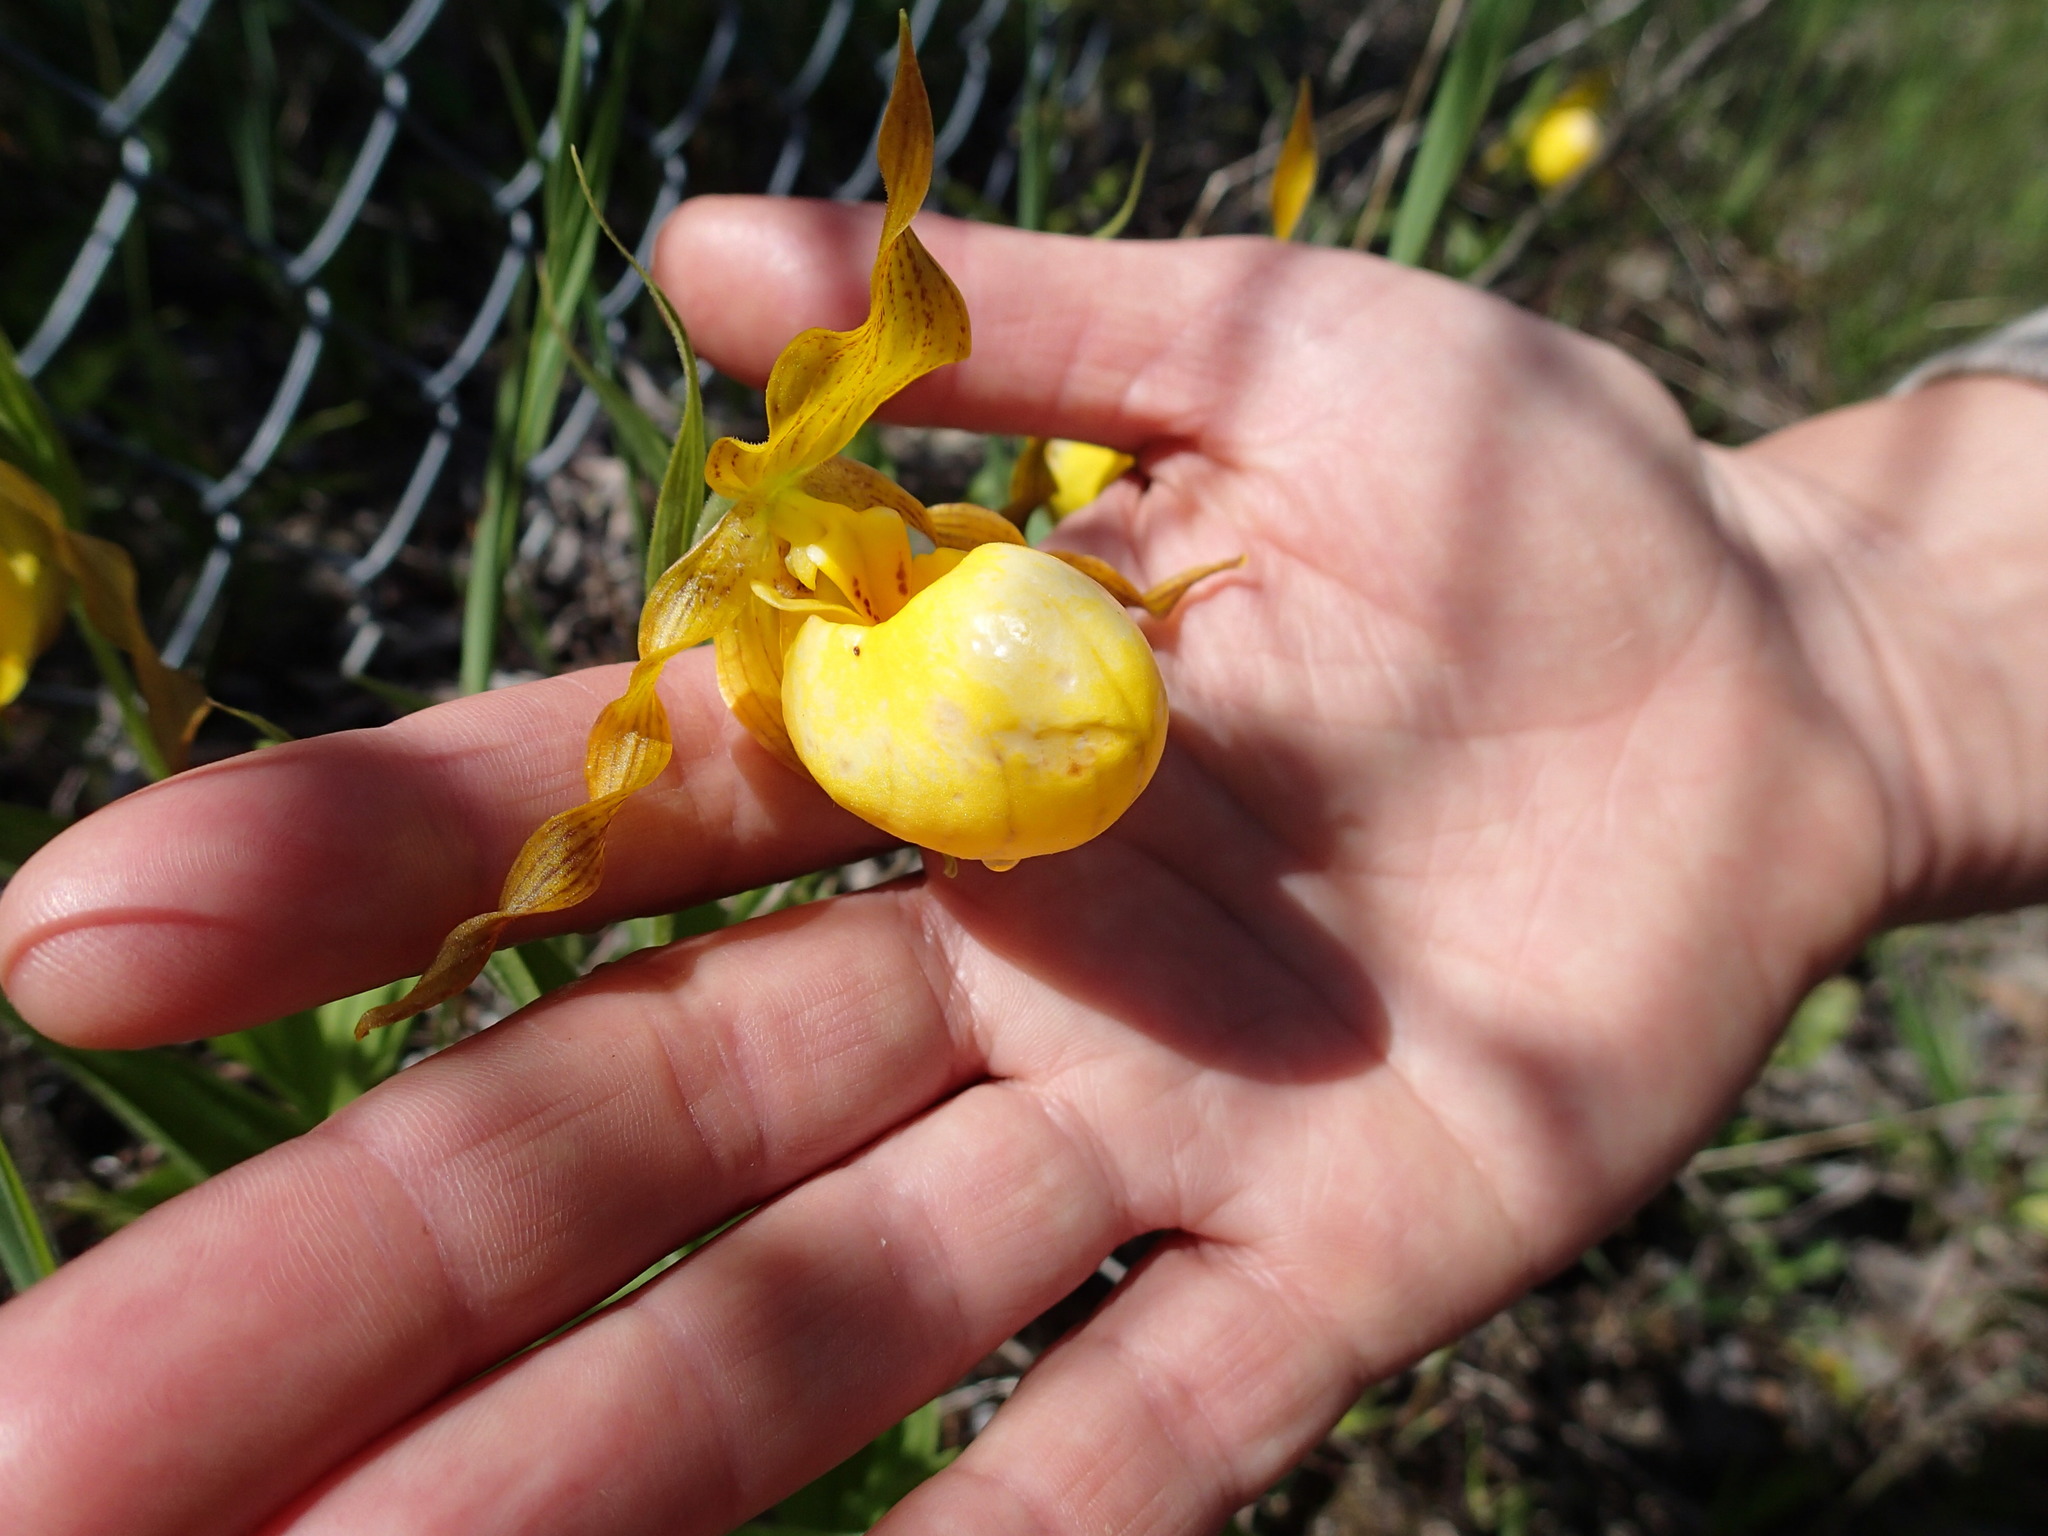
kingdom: Plantae
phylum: Tracheophyta
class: Liliopsida
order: Asparagales
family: Orchidaceae
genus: Cypripedium
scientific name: Cypripedium parviflorum
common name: American yellow lady's-slipper
